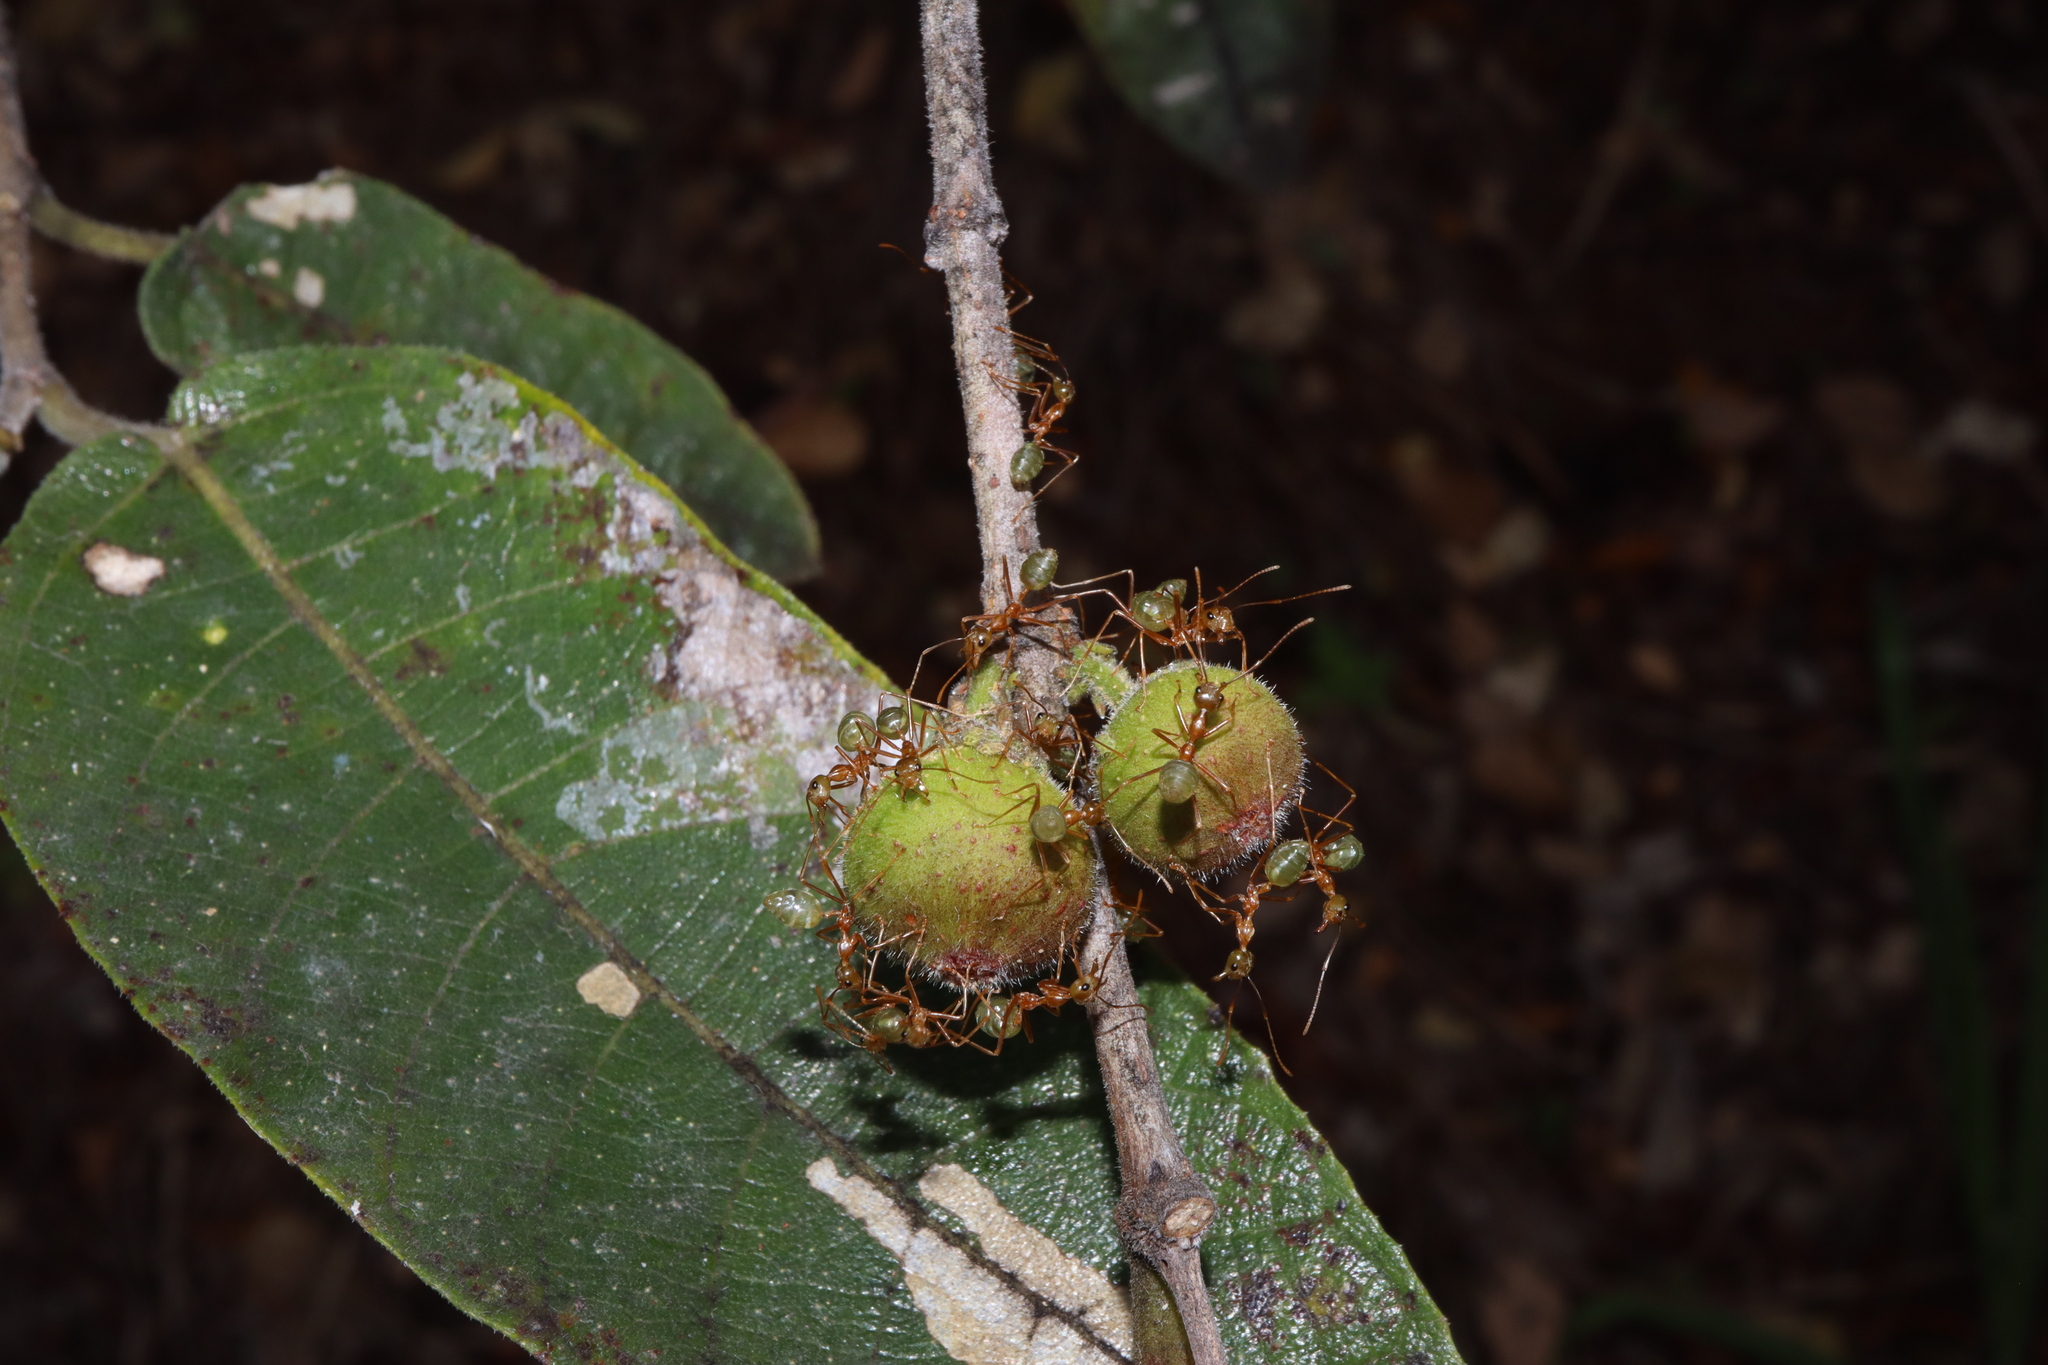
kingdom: Animalia
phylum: Arthropoda
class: Insecta
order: Hymenoptera
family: Formicidae
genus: Oecophylla
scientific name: Oecophylla smaragdina
